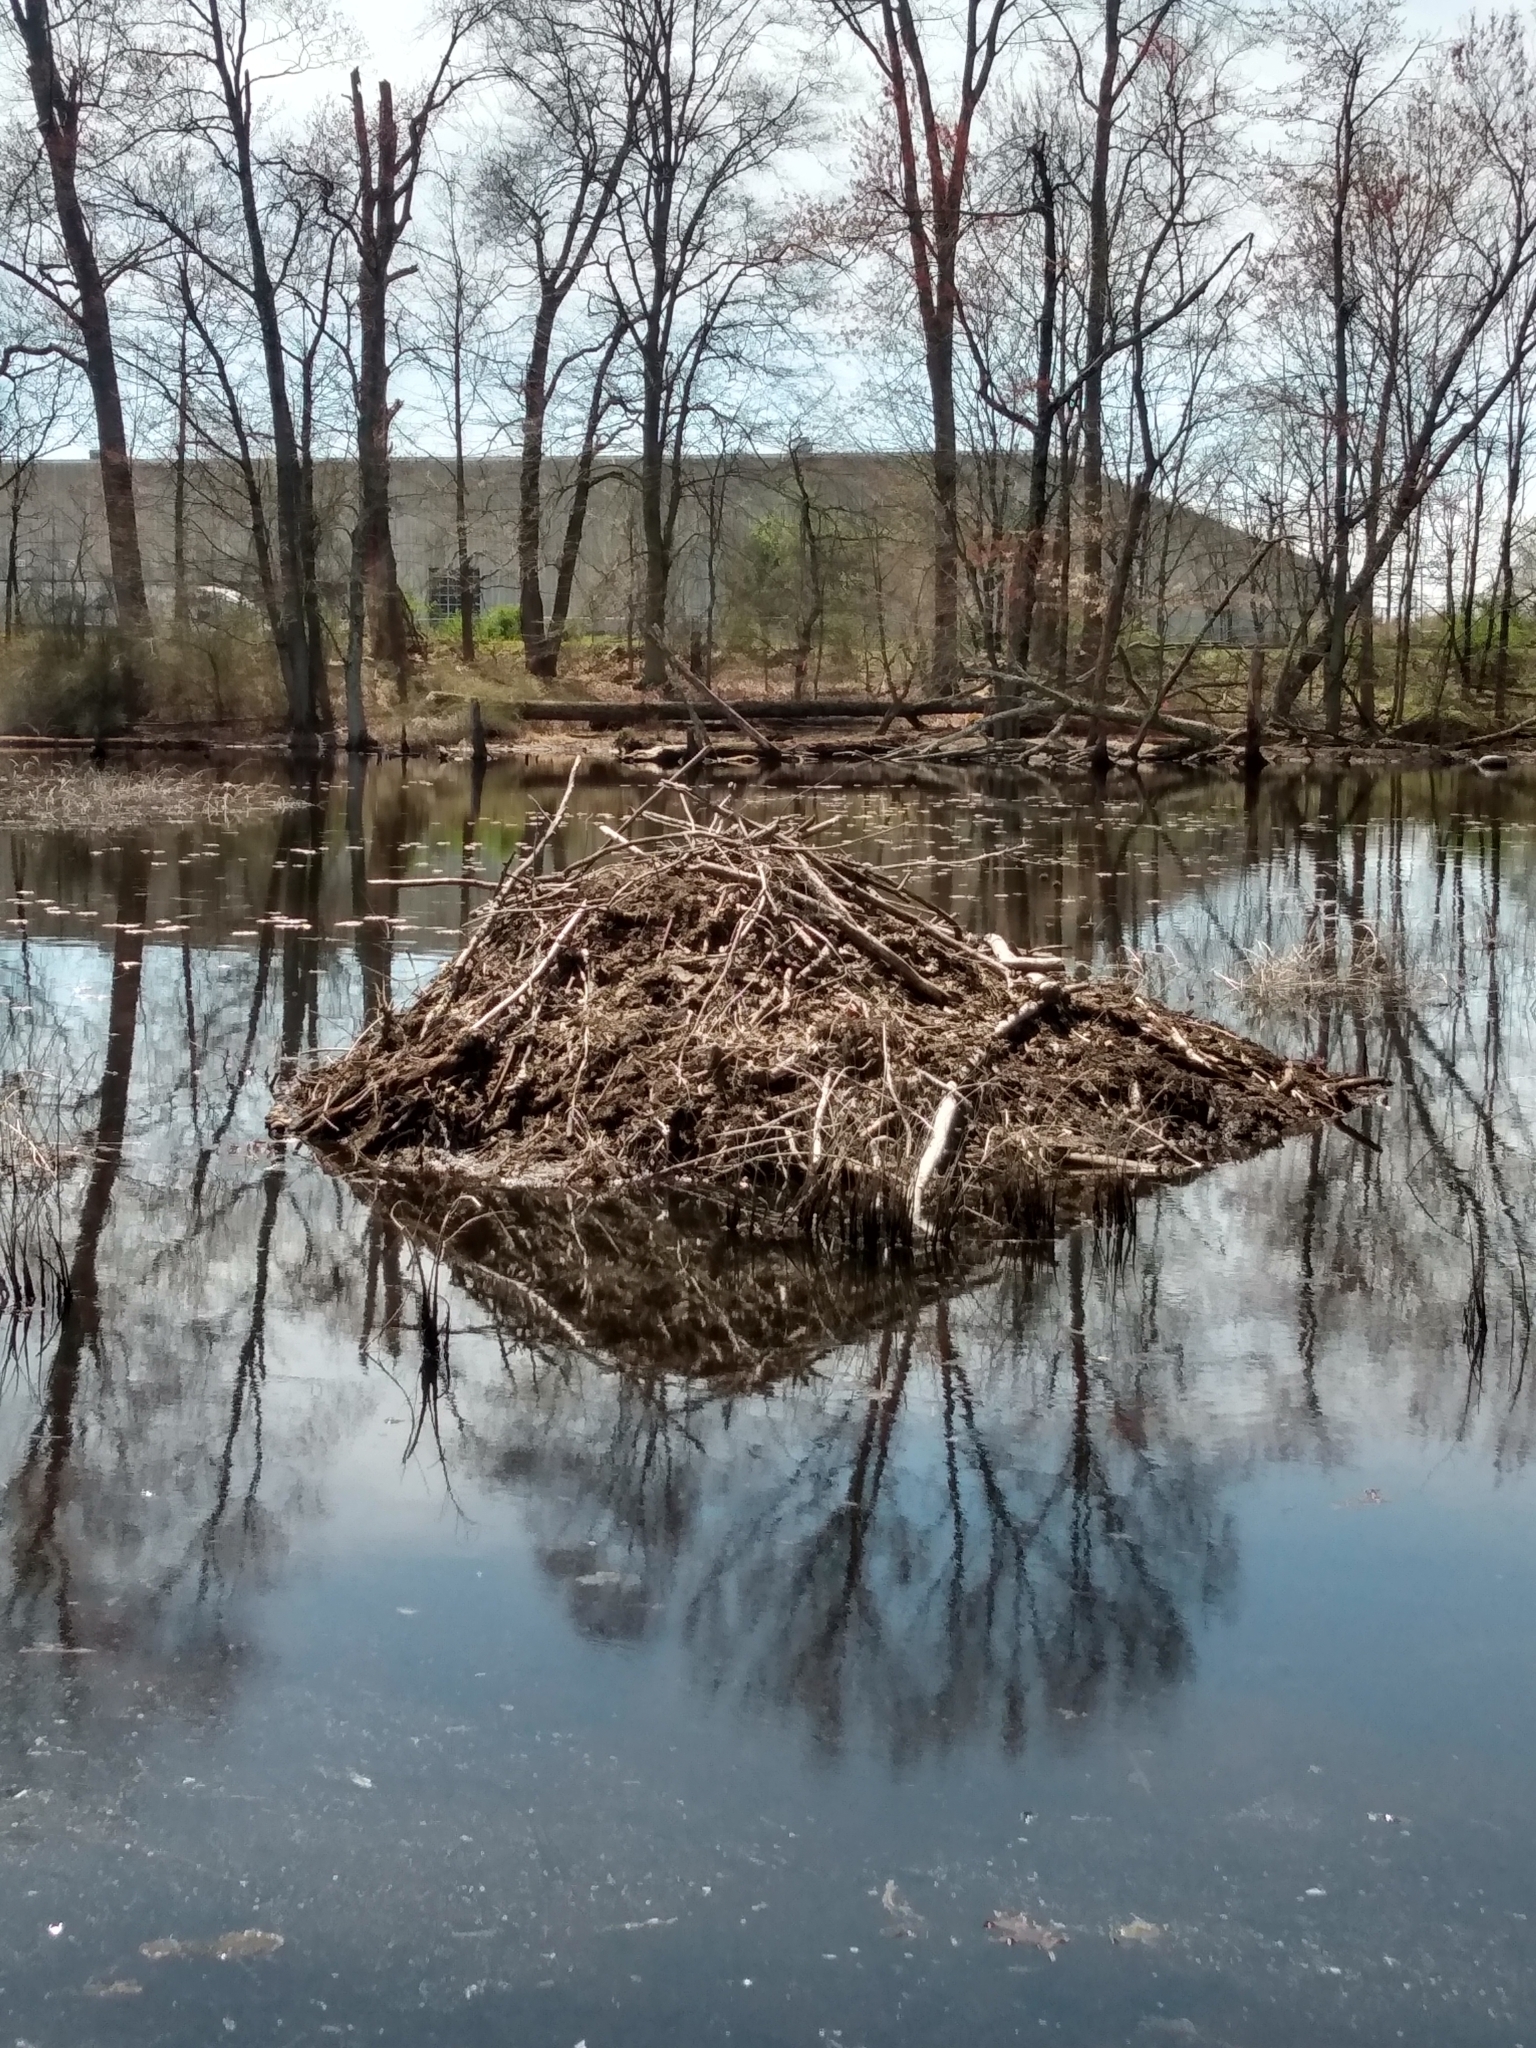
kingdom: Animalia
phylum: Chordata
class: Mammalia
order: Rodentia
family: Castoridae
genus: Castor
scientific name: Castor canadensis
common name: American beaver
